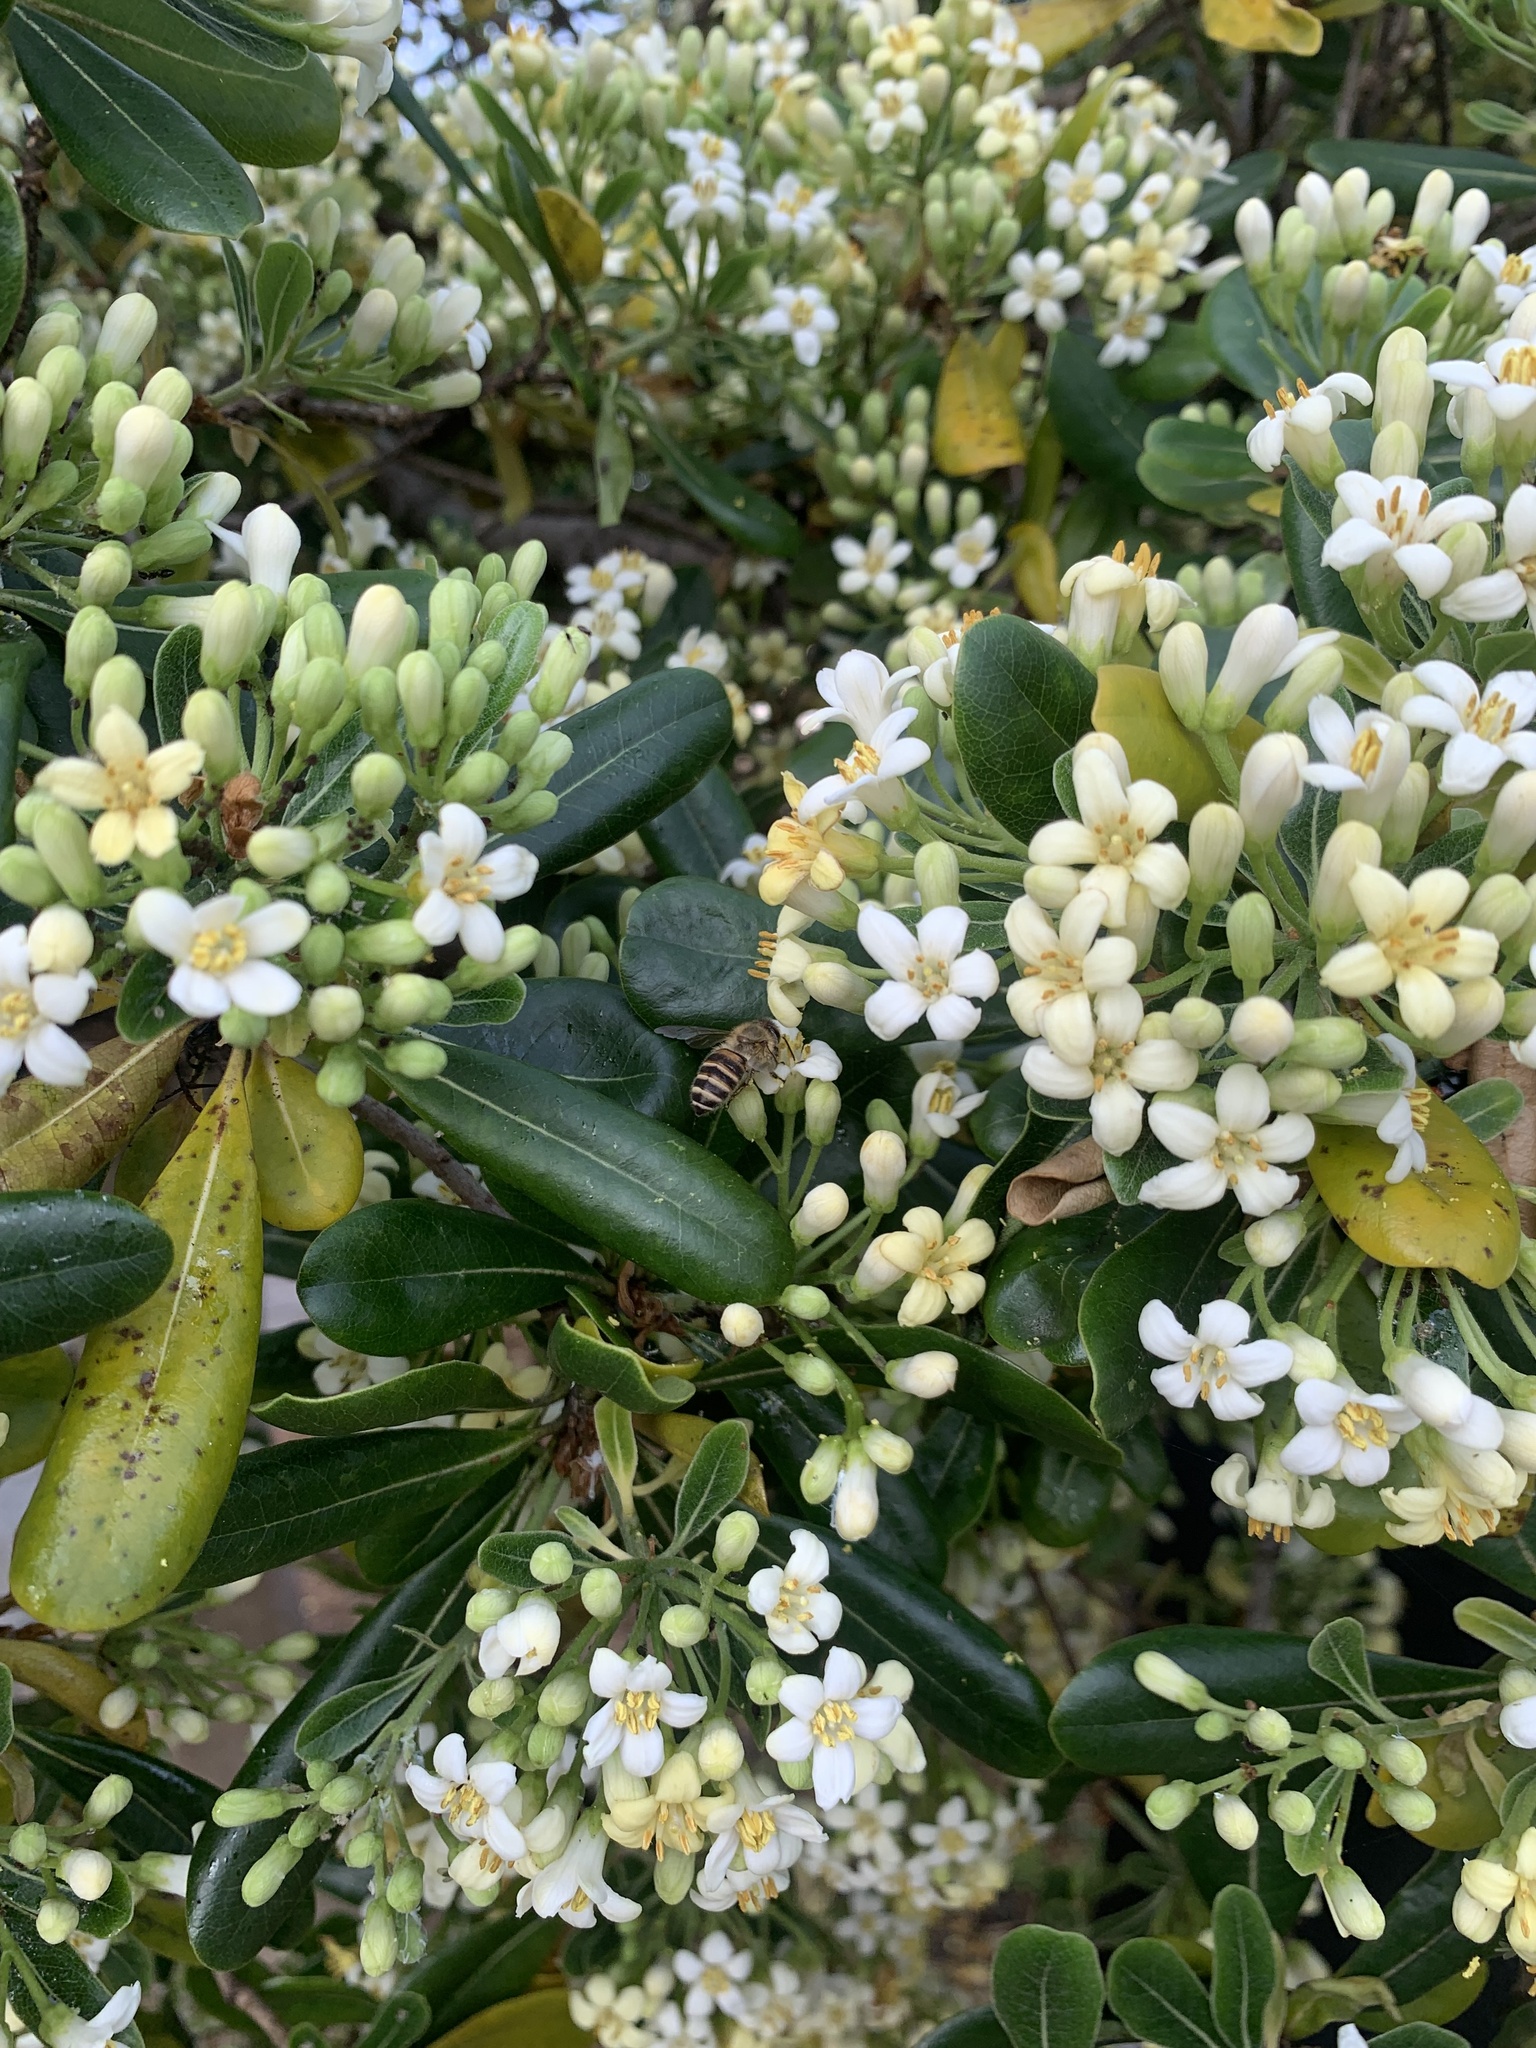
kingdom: Animalia
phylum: Arthropoda
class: Insecta
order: Hymenoptera
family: Apidae
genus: Apis
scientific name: Apis cerana
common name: Honey bee
